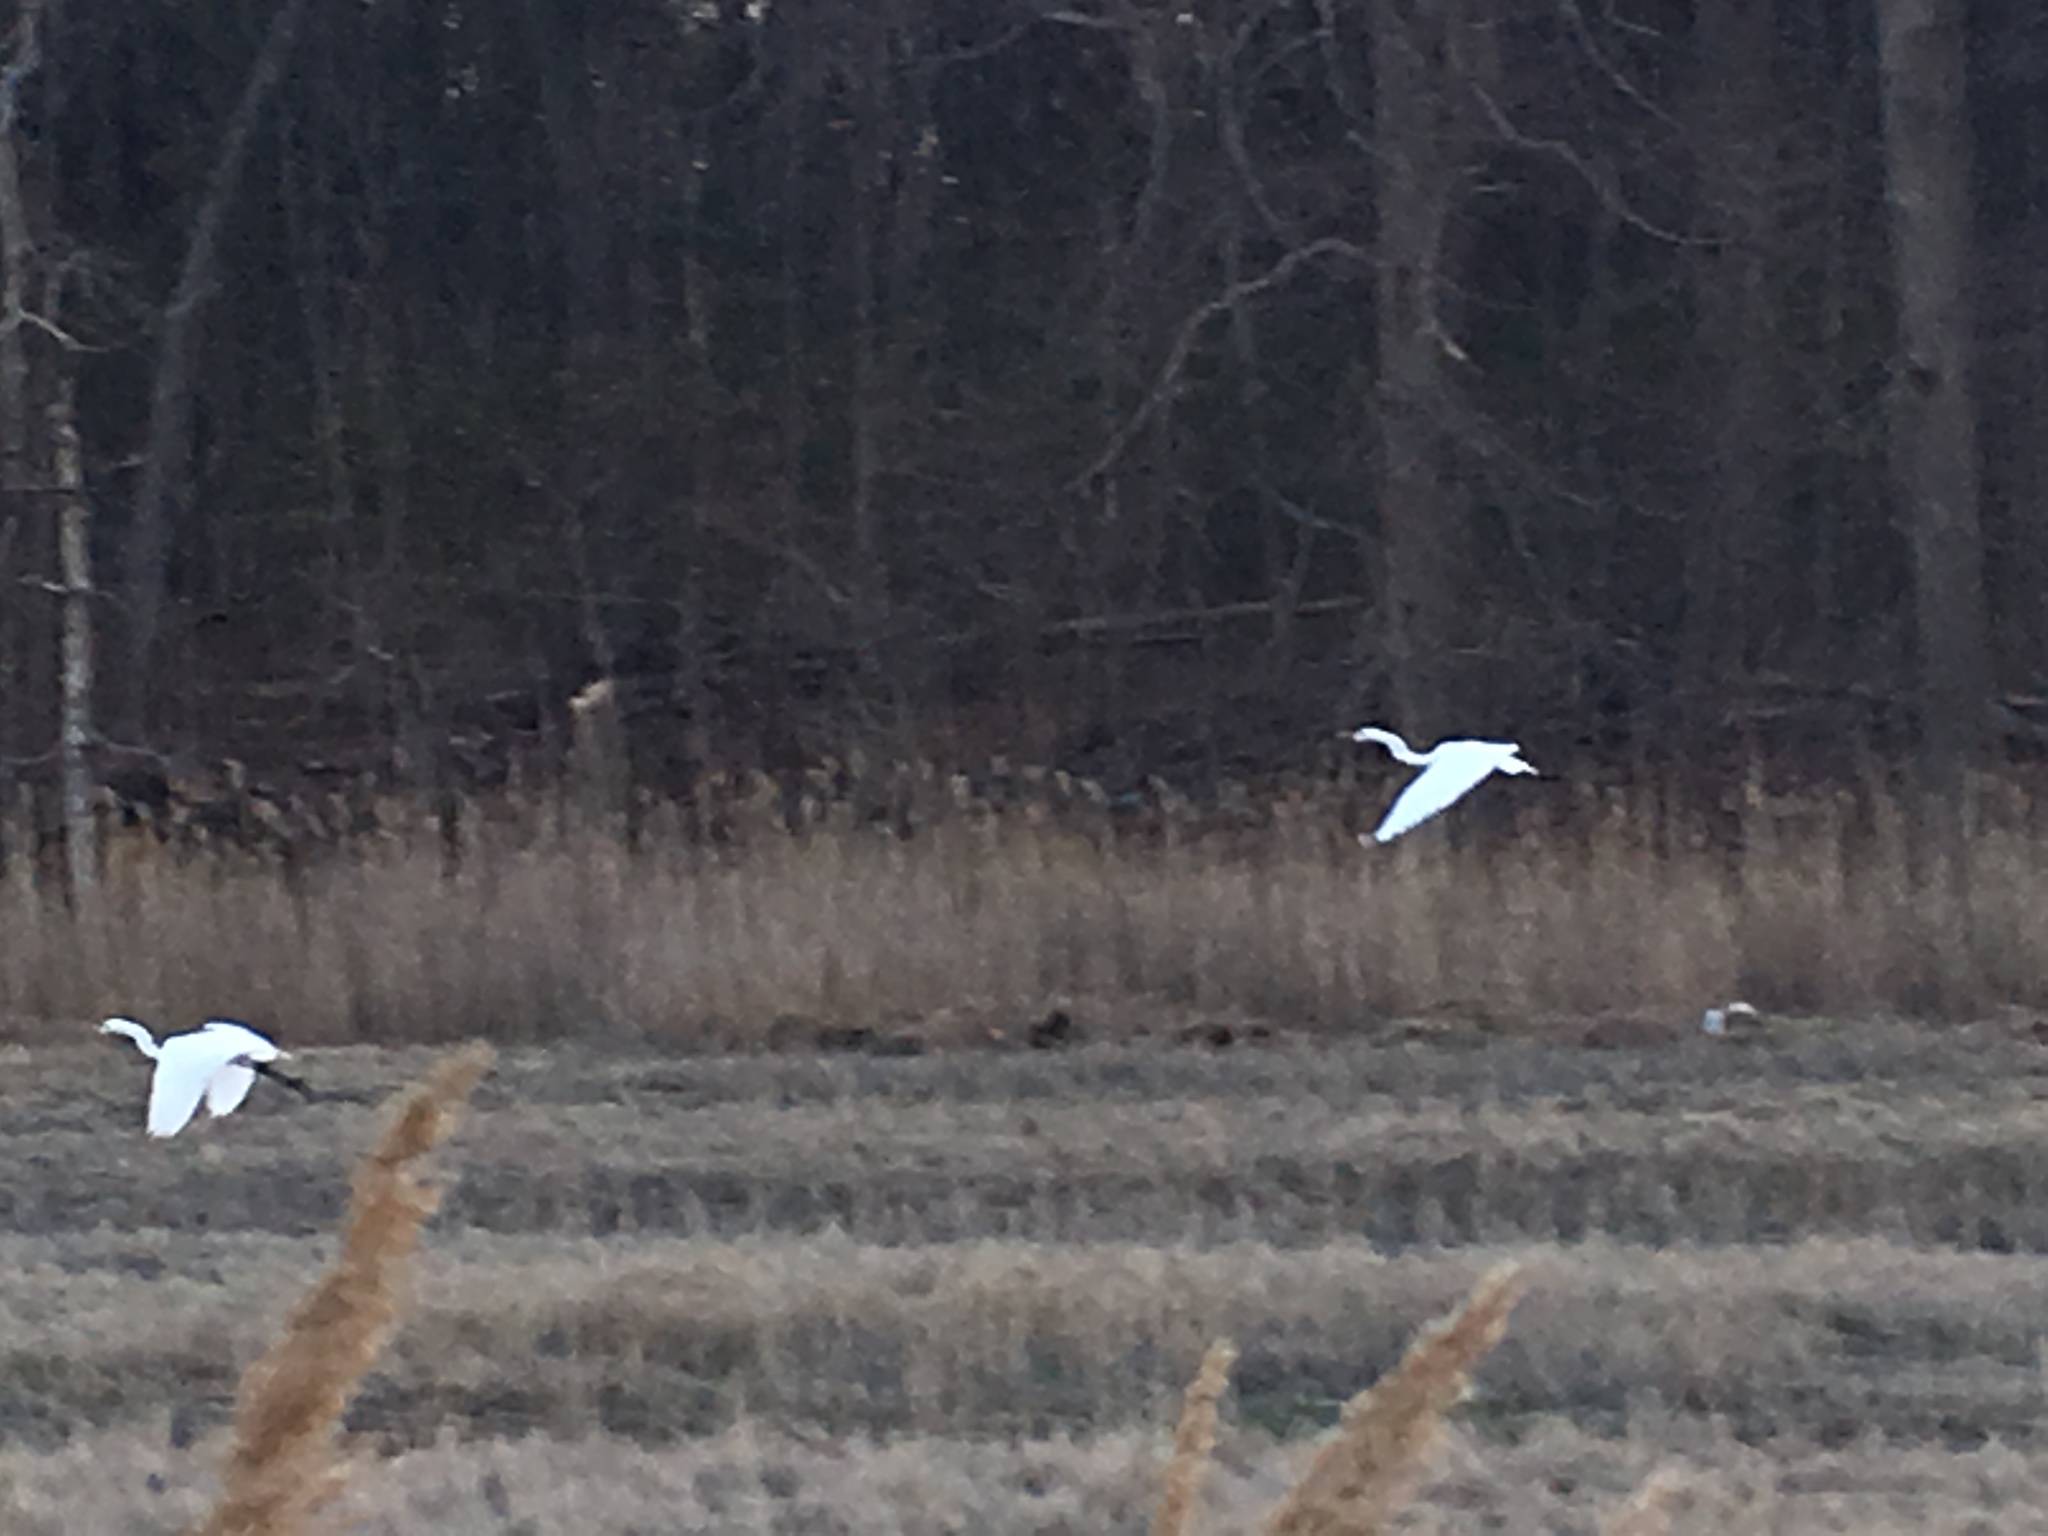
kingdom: Animalia
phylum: Chordata
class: Aves
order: Pelecaniformes
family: Ardeidae
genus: Ardea
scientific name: Ardea alba
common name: Great egret
